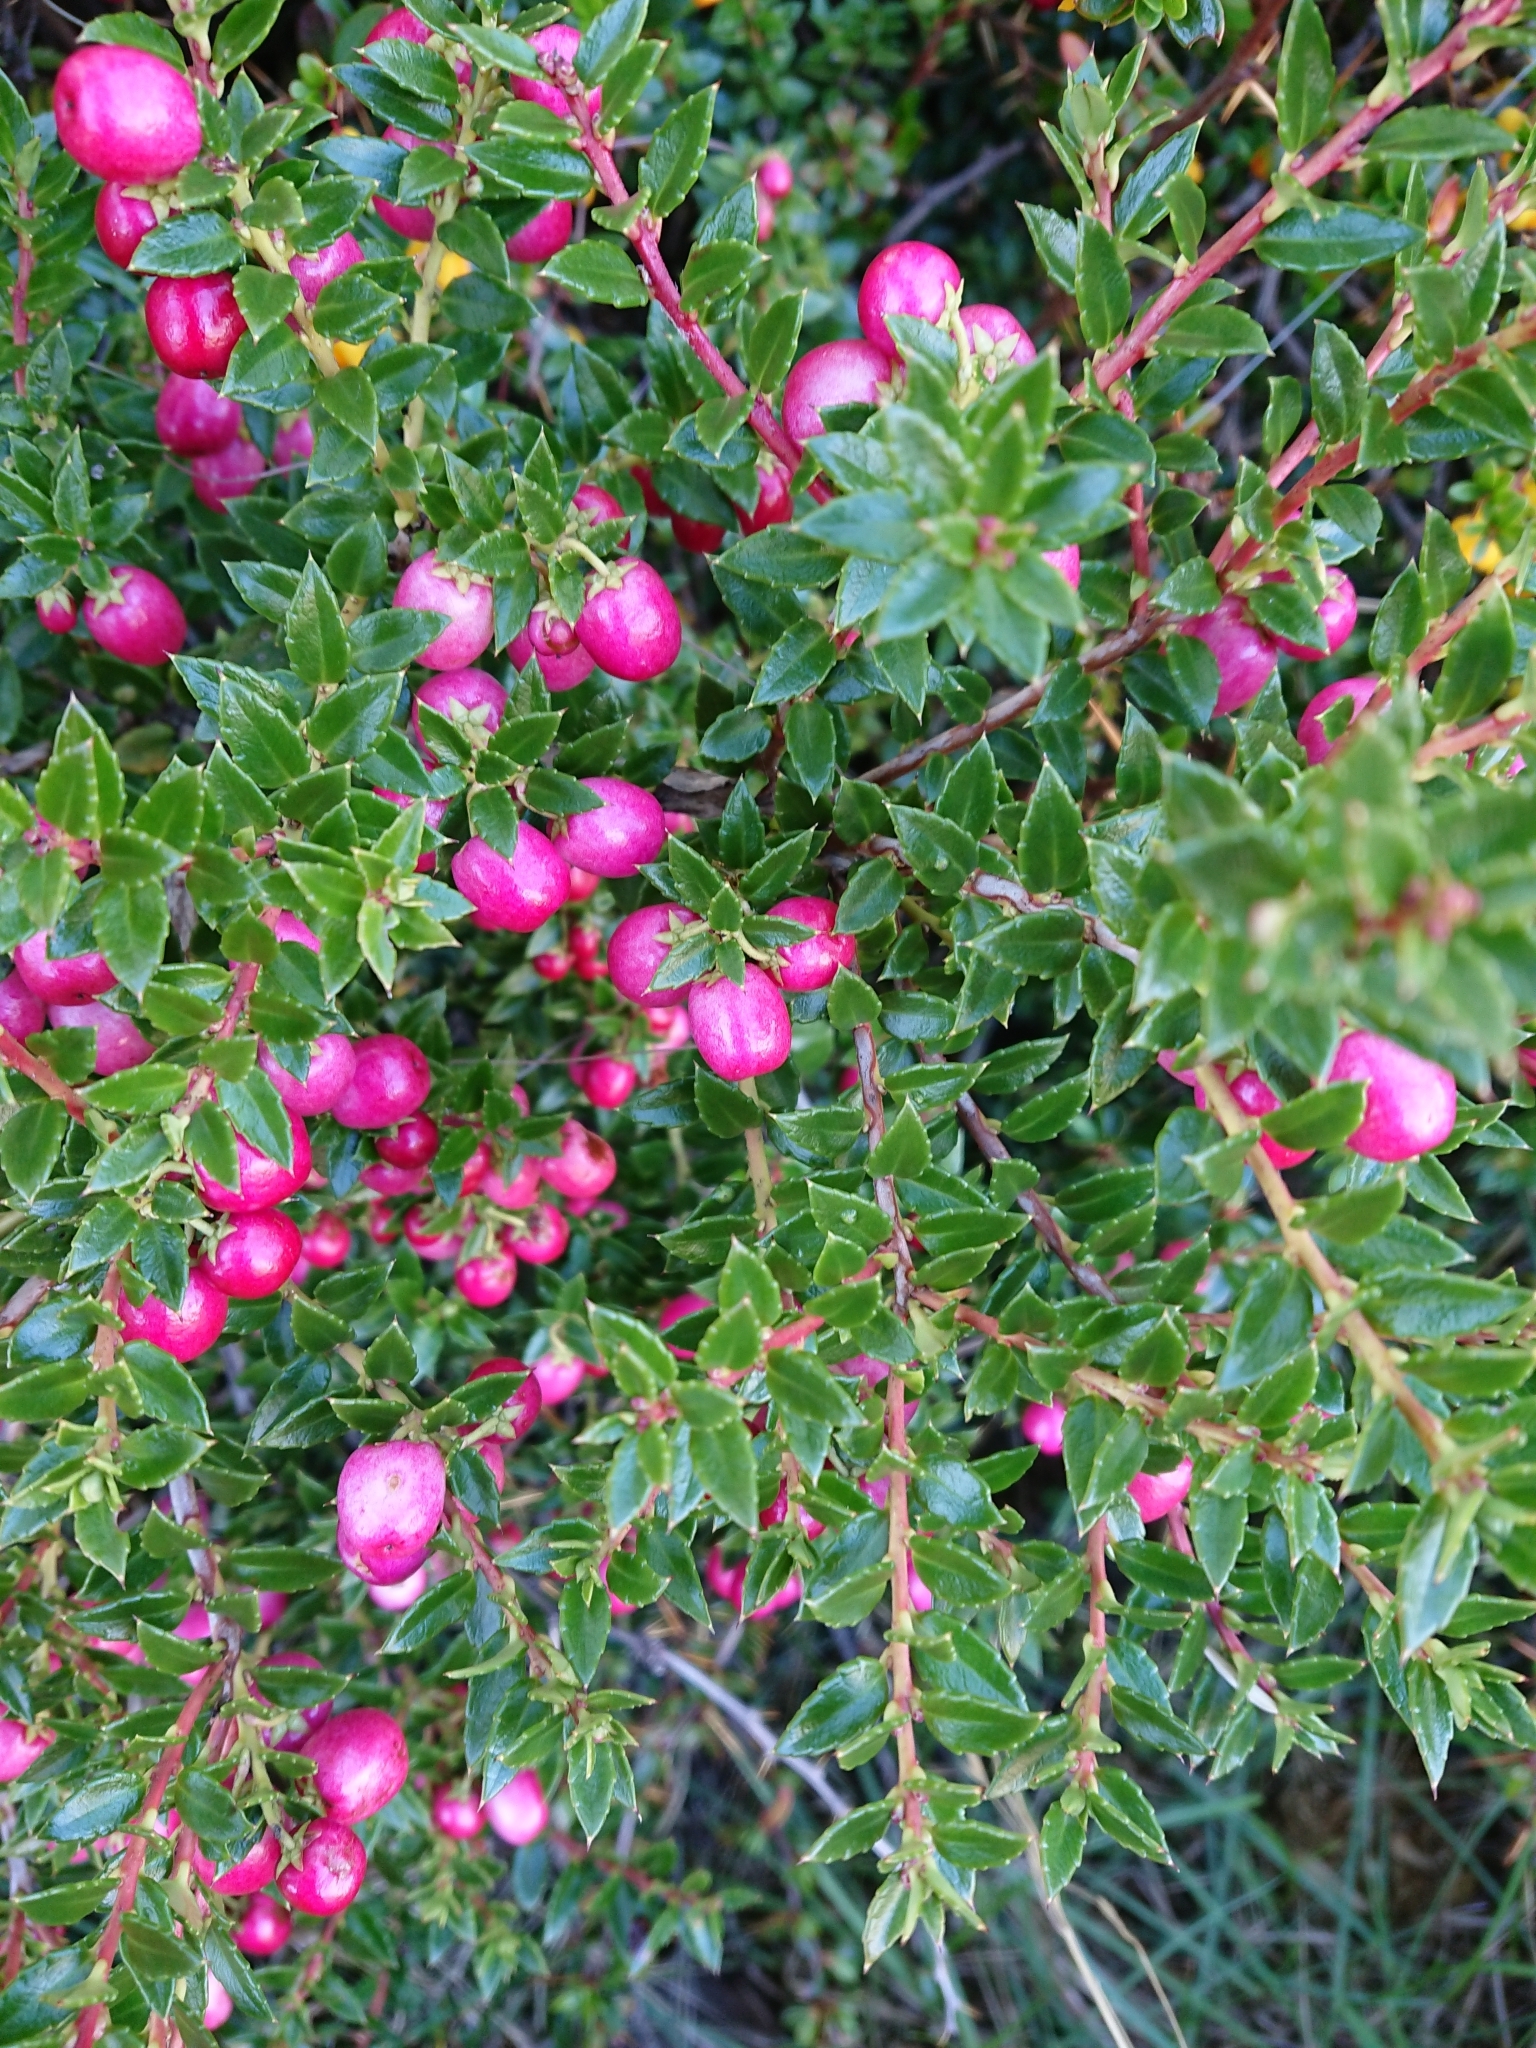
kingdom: Plantae
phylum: Tracheophyta
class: Magnoliopsida
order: Ericales
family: Ericaceae
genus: Gaultheria
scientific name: Gaultheria mucronata
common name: Prickly heath
